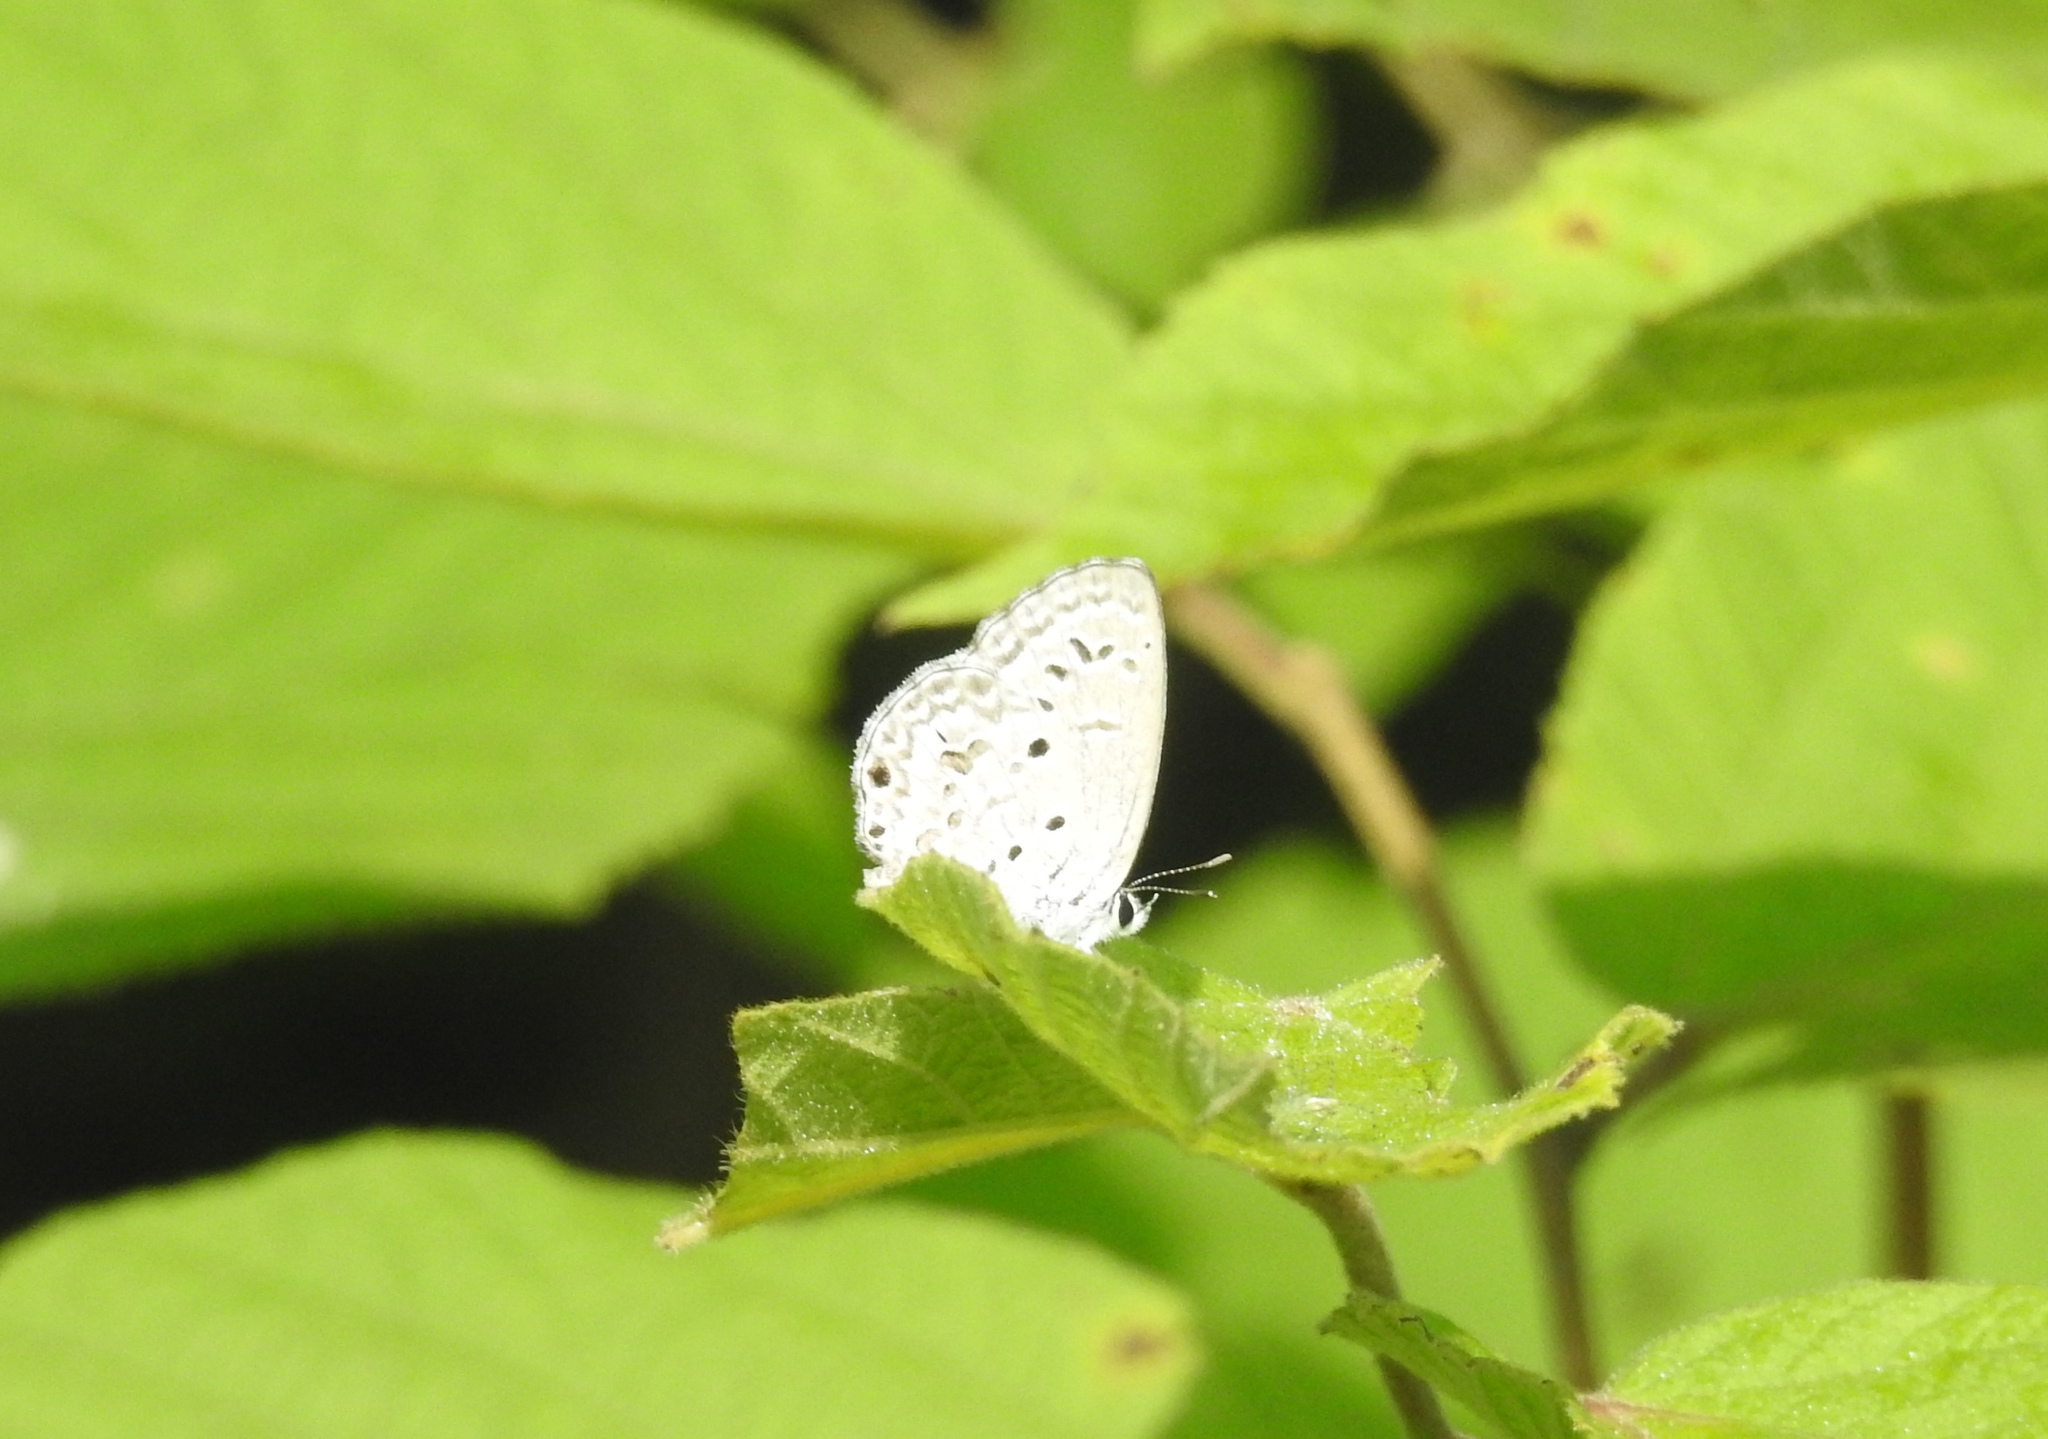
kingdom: Animalia
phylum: Arthropoda
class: Insecta
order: Lepidoptera
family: Lycaenidae
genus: Chilades
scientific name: Chilades laius
